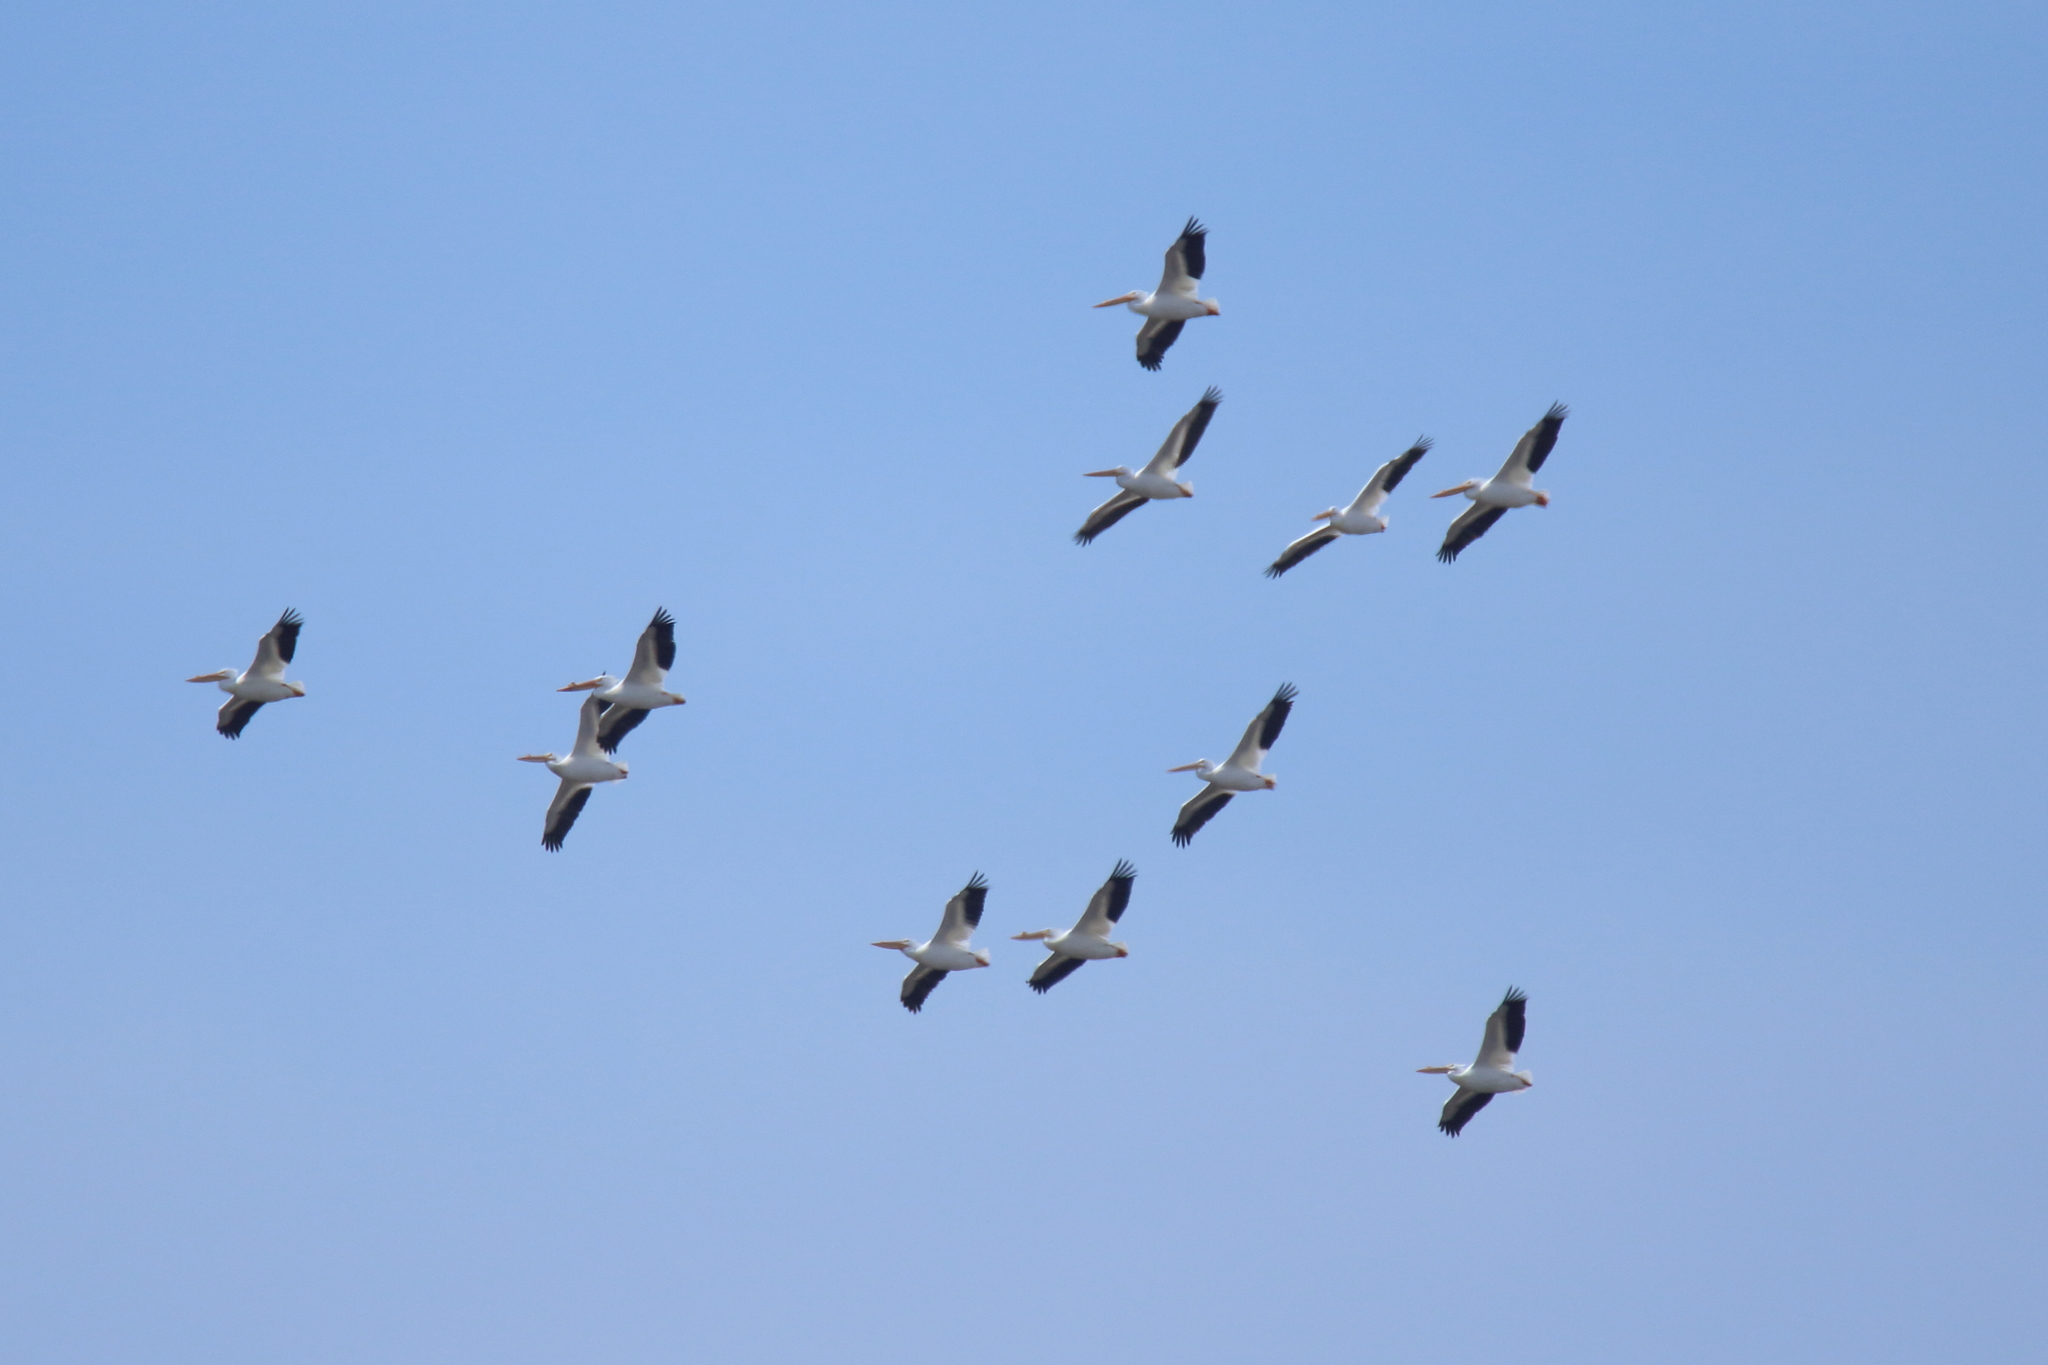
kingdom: Animalia
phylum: Chordata
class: Aves
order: Pelecaniformes
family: Pelecanidae
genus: Pelecanus
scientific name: Pelecanus erythrorhynchos
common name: American white pelican
